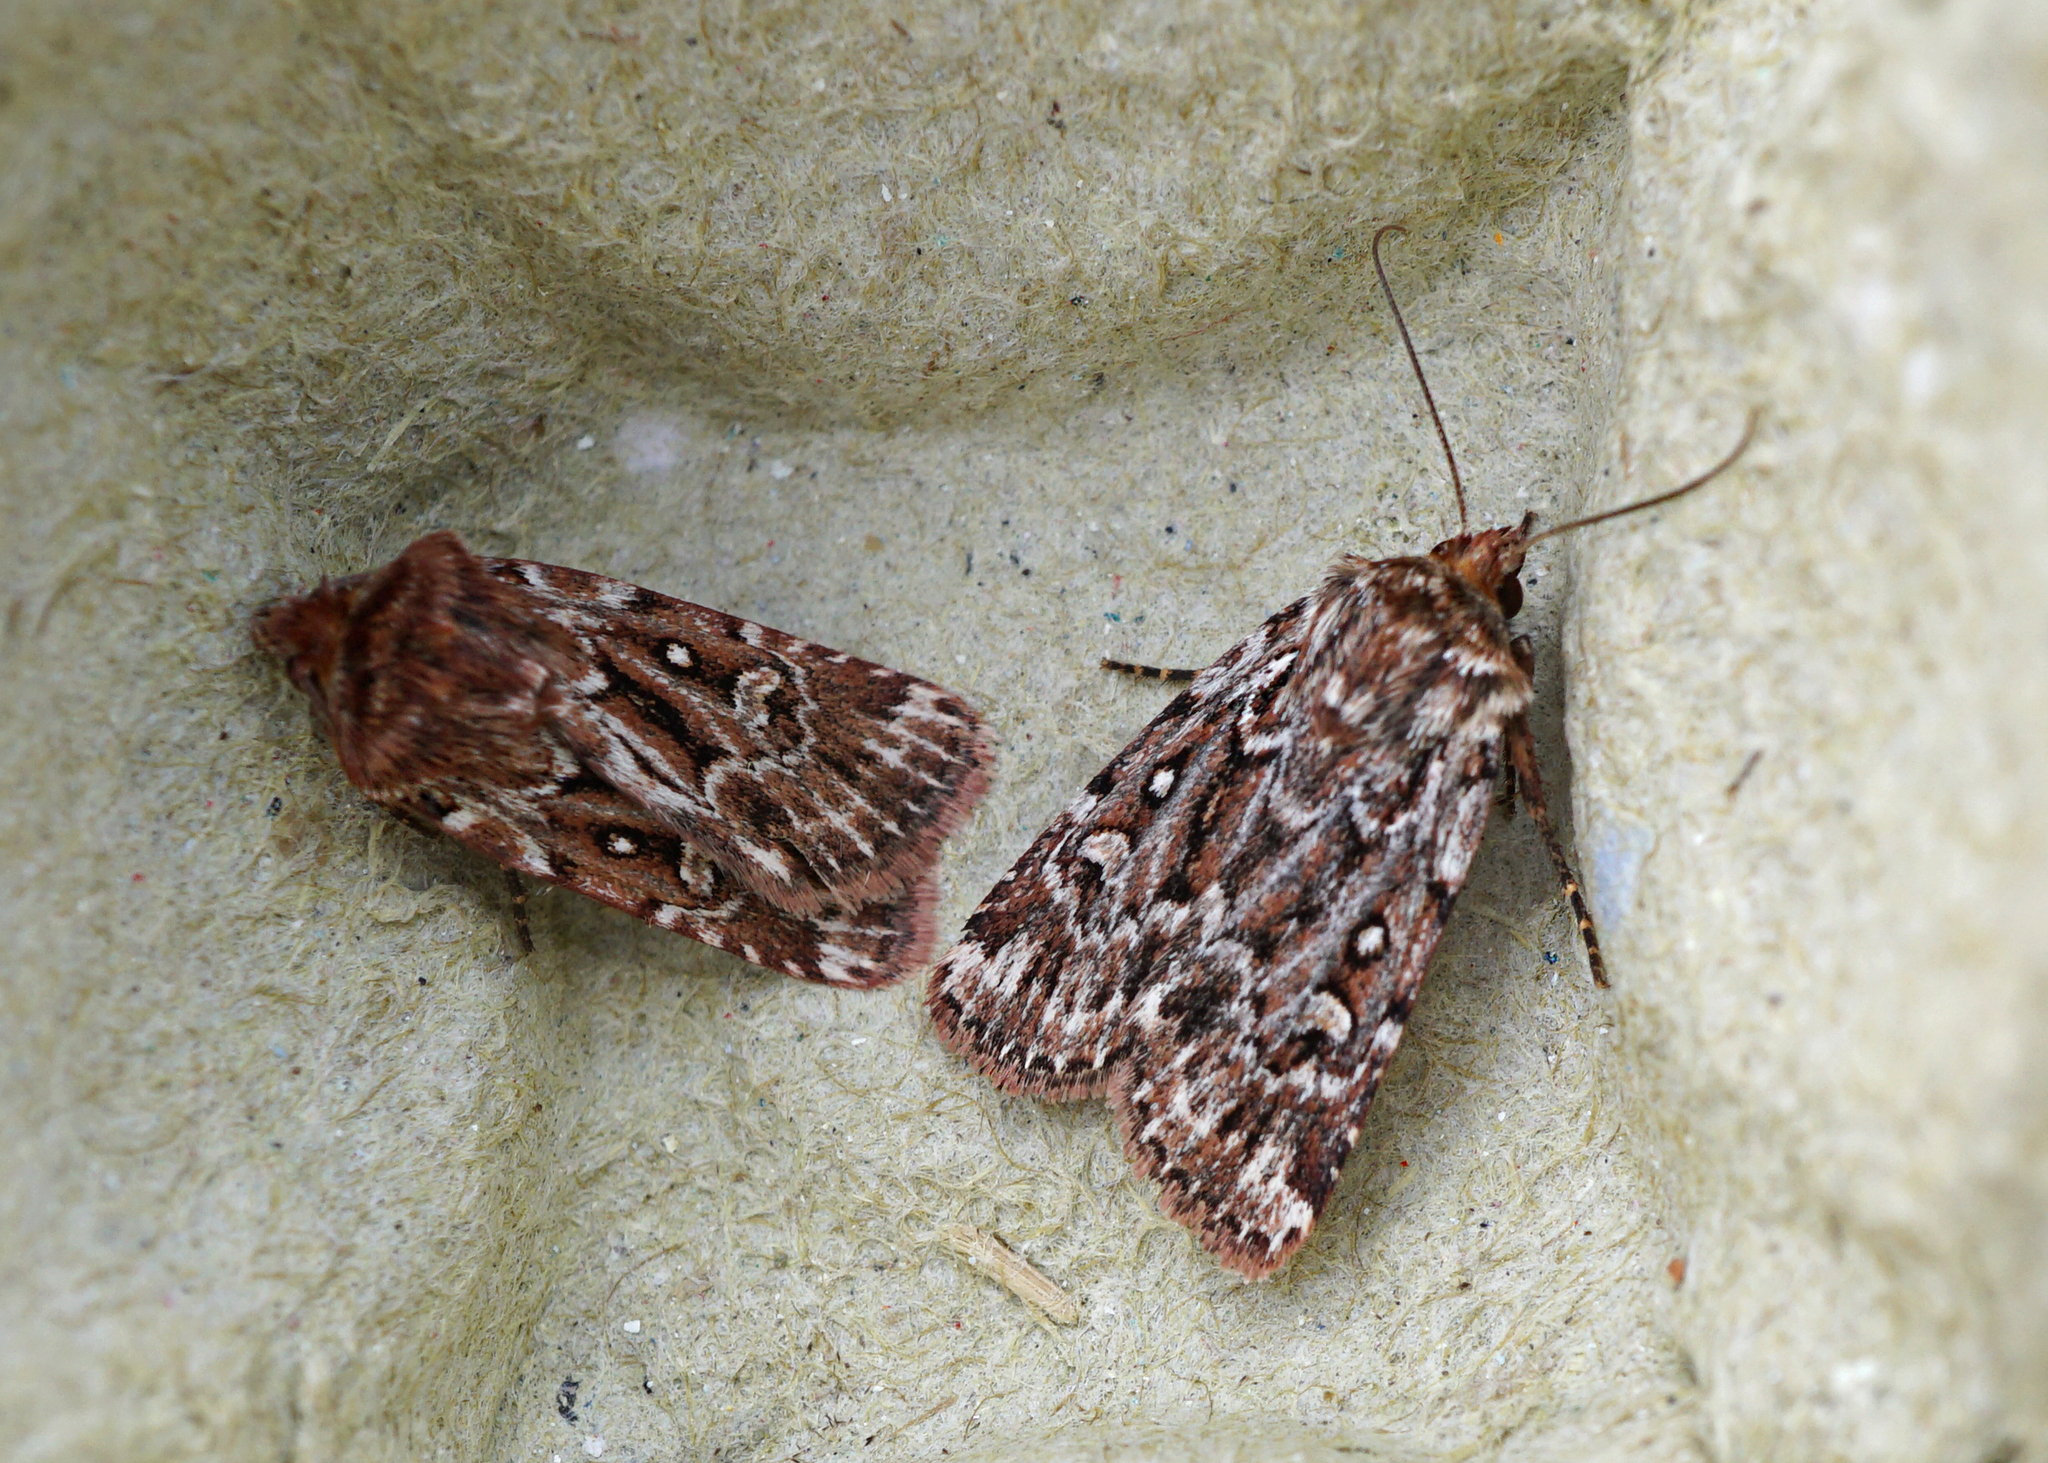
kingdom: Animalia
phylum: Arthropoda
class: Insecta
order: Lepidoptera
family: Noctuidae
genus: Lycophotia
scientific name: Lycophotia porphyrea
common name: True lover's knot
